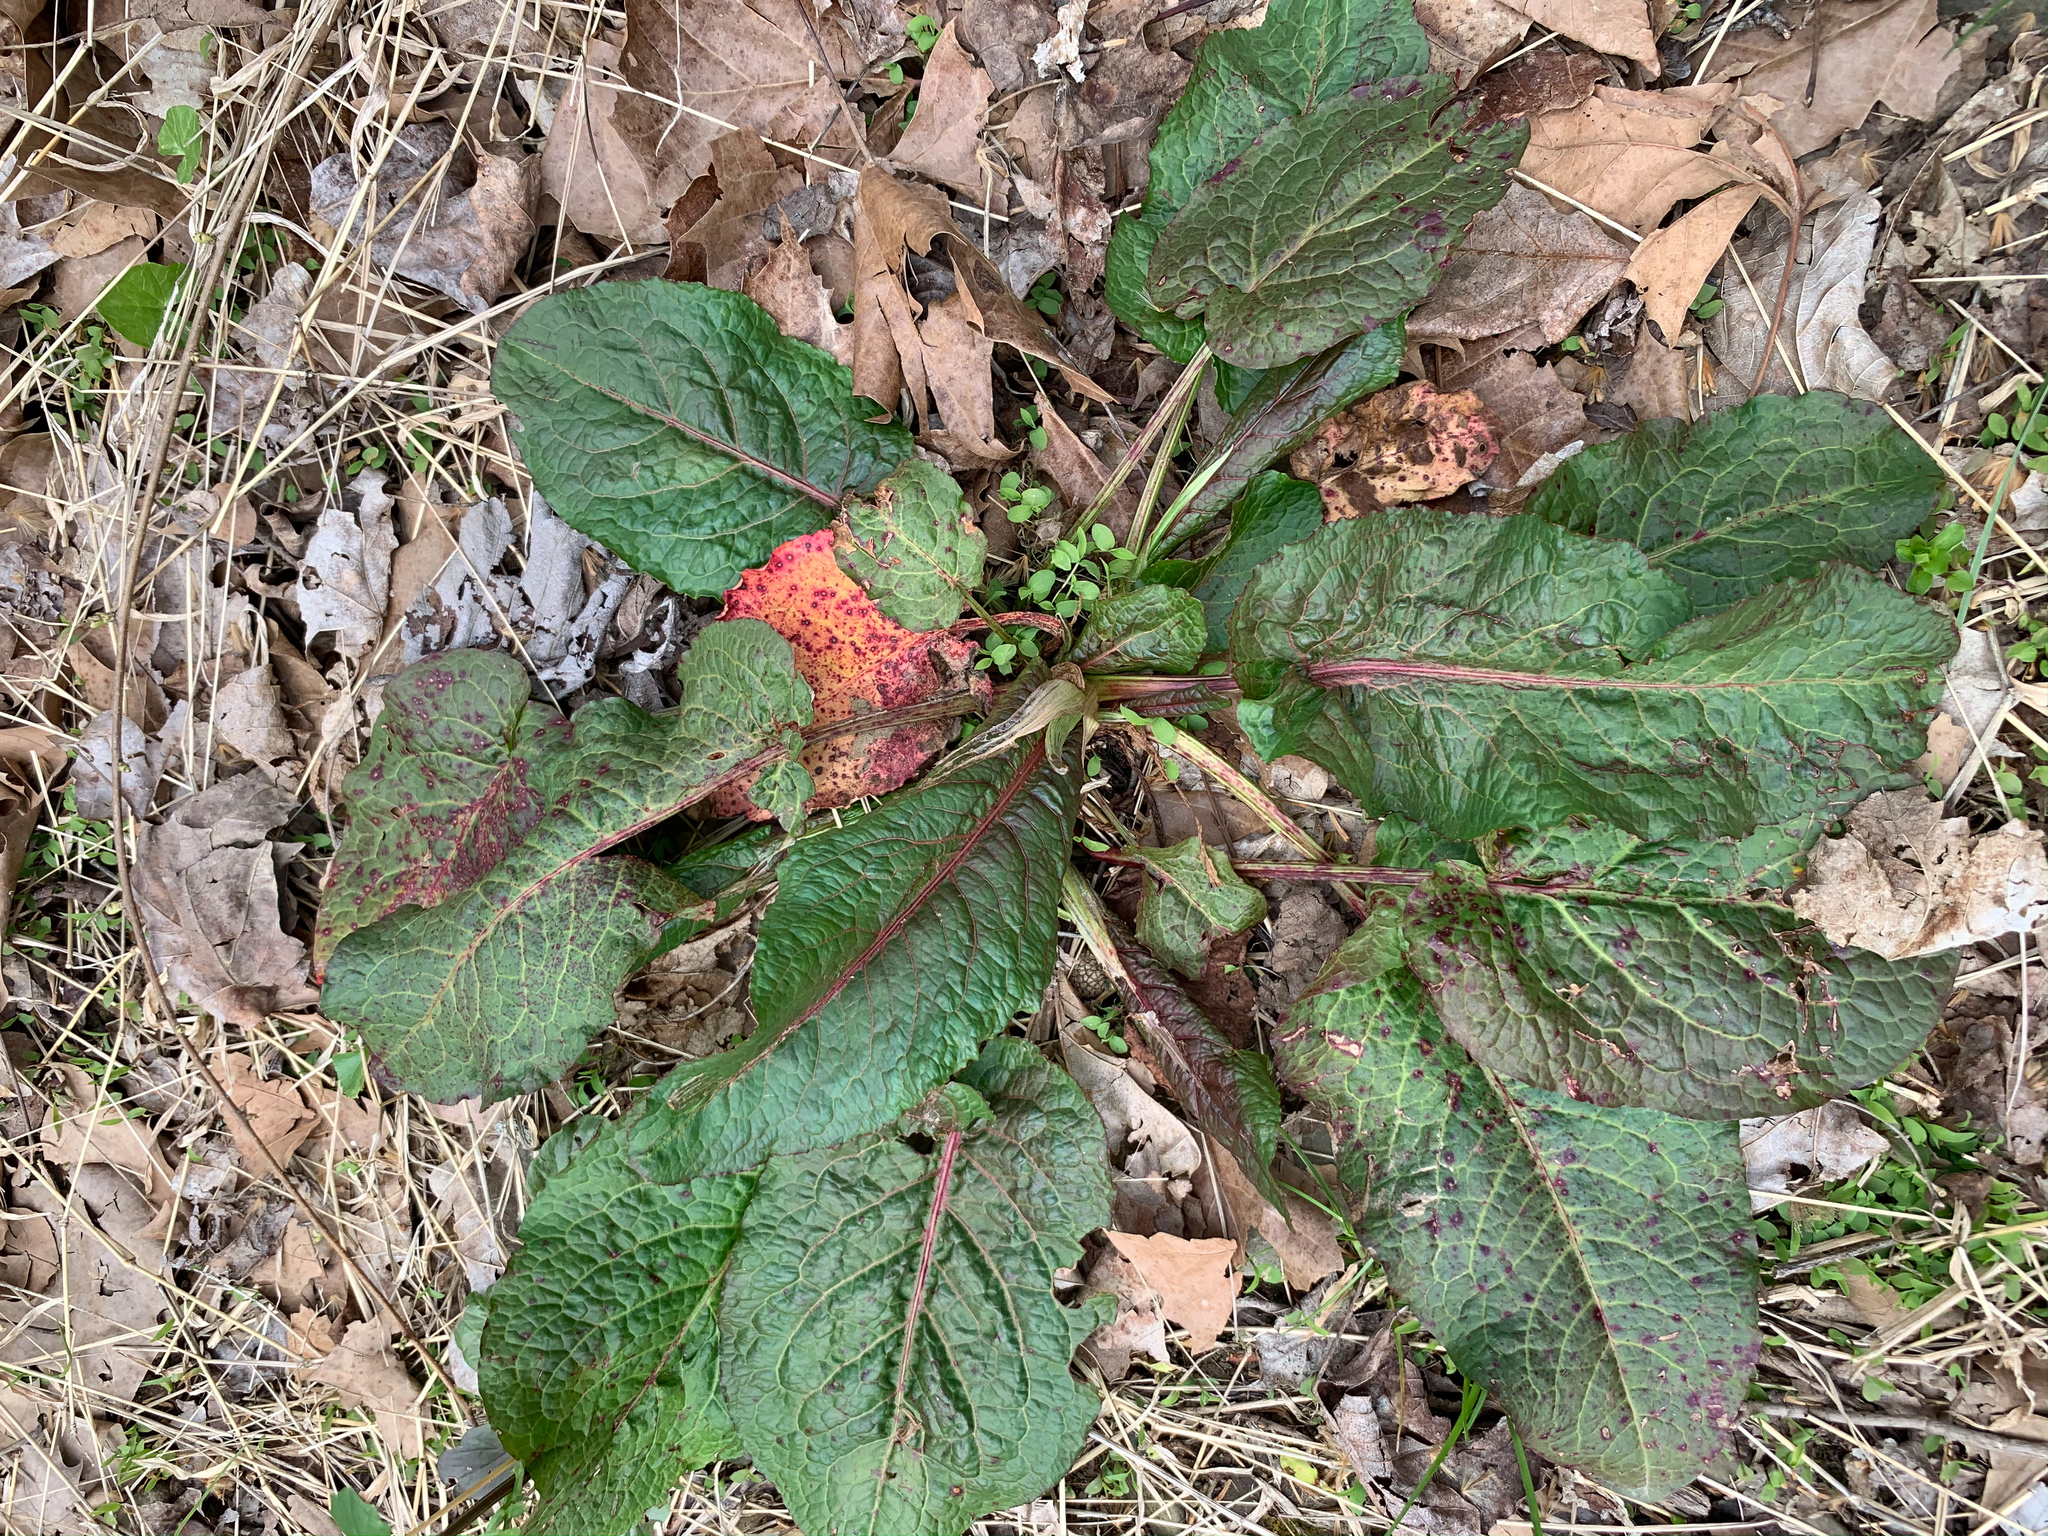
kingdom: Plantae
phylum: Tracheophyta
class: Magnoliopsida
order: Caryophyllales
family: Polygonaceae
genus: Rumex
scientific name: Rumex obtusifolius
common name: Bitter dock
